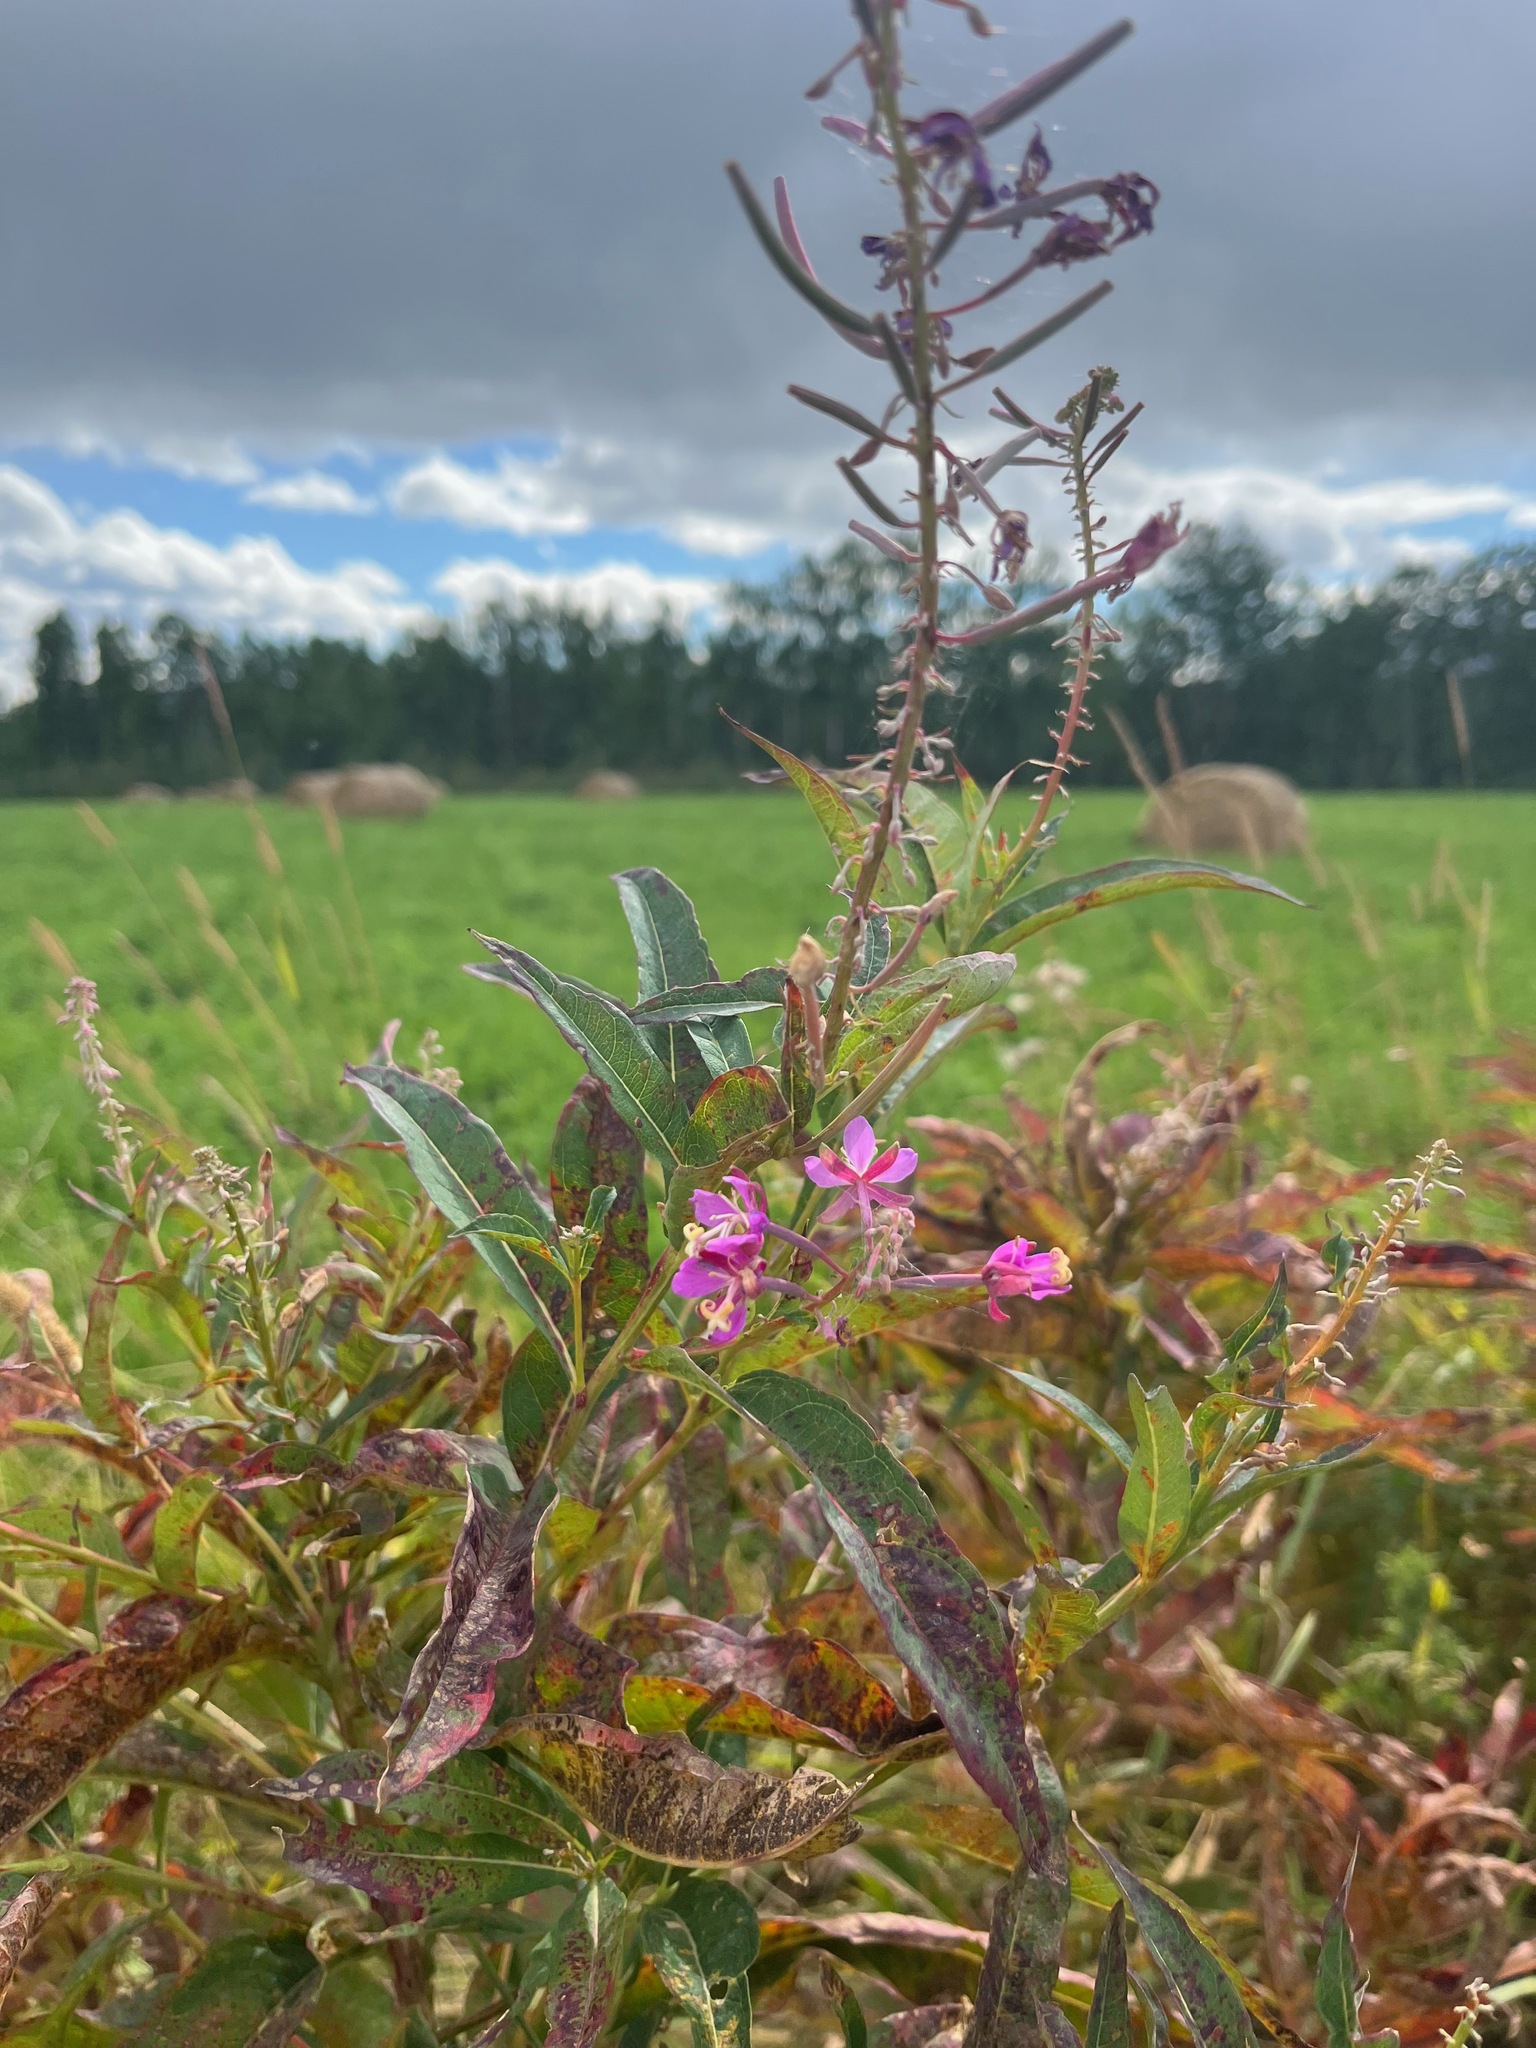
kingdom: Plantae
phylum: Tracheophyta
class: Magnoliopsida
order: Myrtales
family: Onagraceae
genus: Chamaenerion
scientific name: Chamaenerion angustifolium
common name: Fireweed
